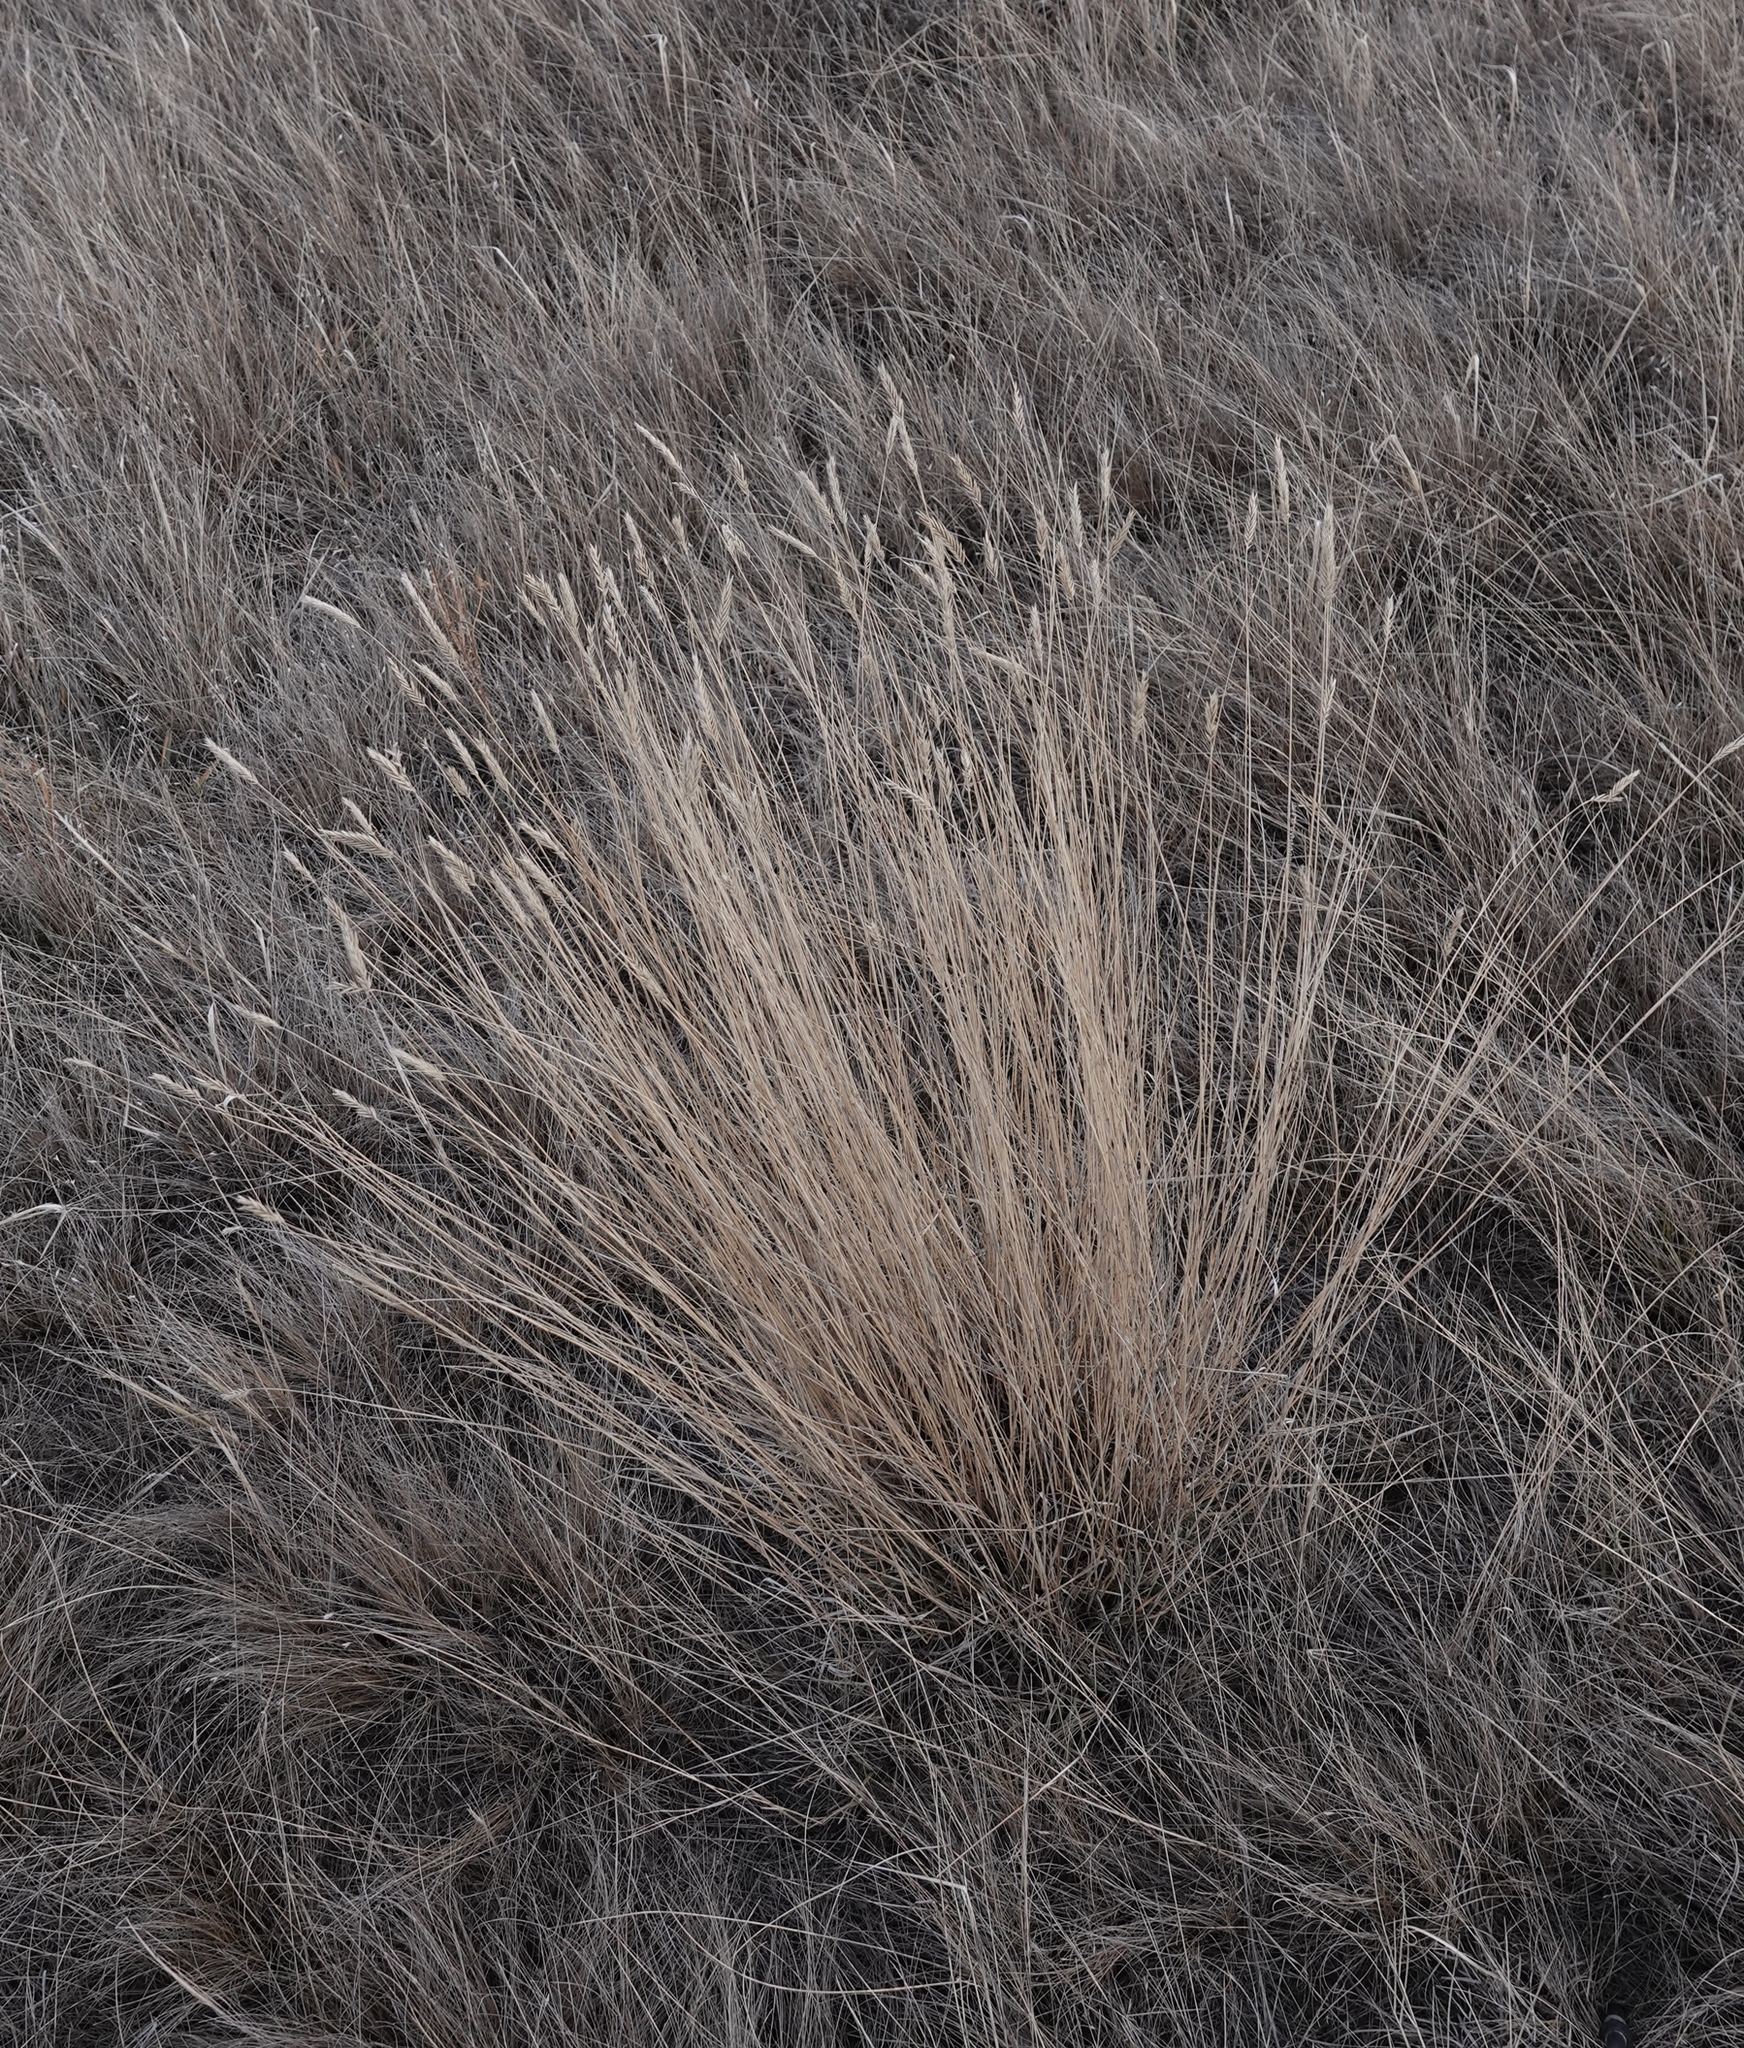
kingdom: Plantae
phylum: Tracheophyta
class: Liliopsida
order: Poales
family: Poaceae
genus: Agropyron
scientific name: Agropyron cristatum
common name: Crested wheatgrass
